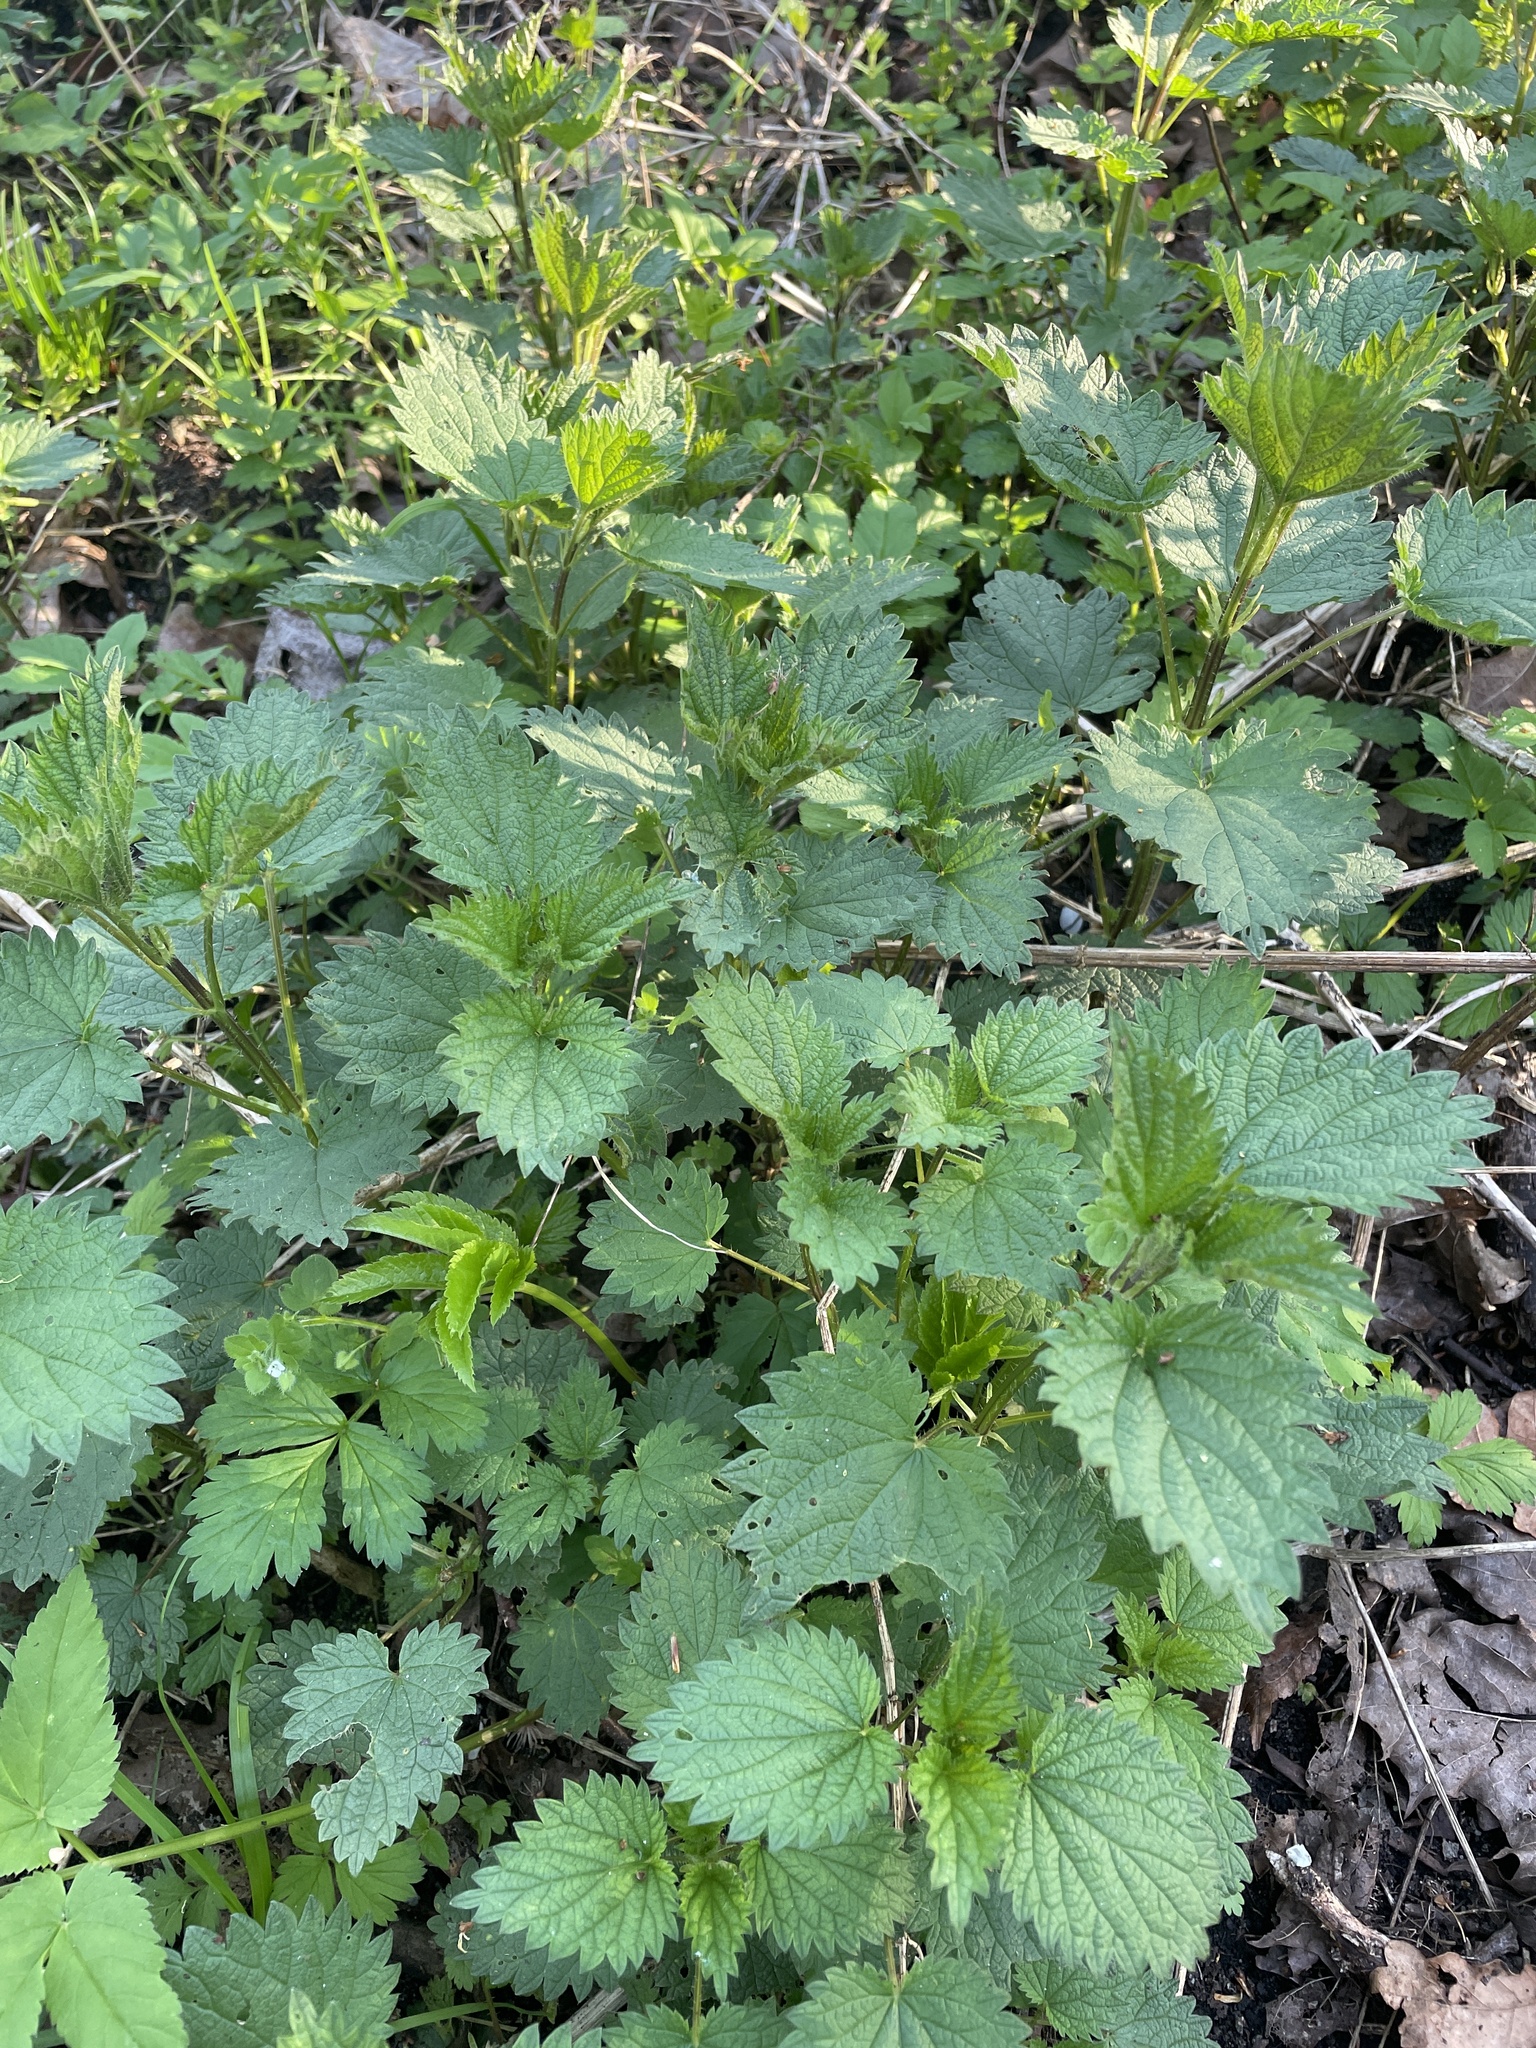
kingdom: Plantae
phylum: Tracheophyta
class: Magnoliopsida
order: Rosales
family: Urticaceae
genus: Urtica
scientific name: Urtica dioica
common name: Common nettle
